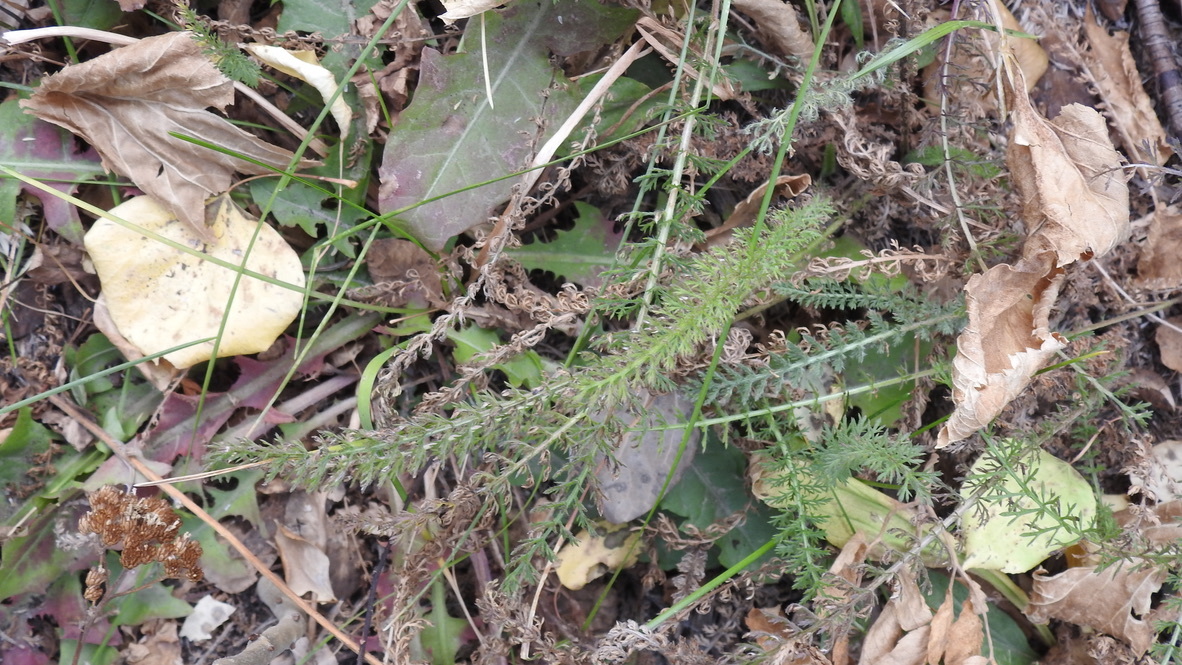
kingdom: Plantae
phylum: Tracheophyta
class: Magnoliopsida
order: Asterales
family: Asteraceae
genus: Achillea
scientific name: Achillea millefolium
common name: Yarrow
